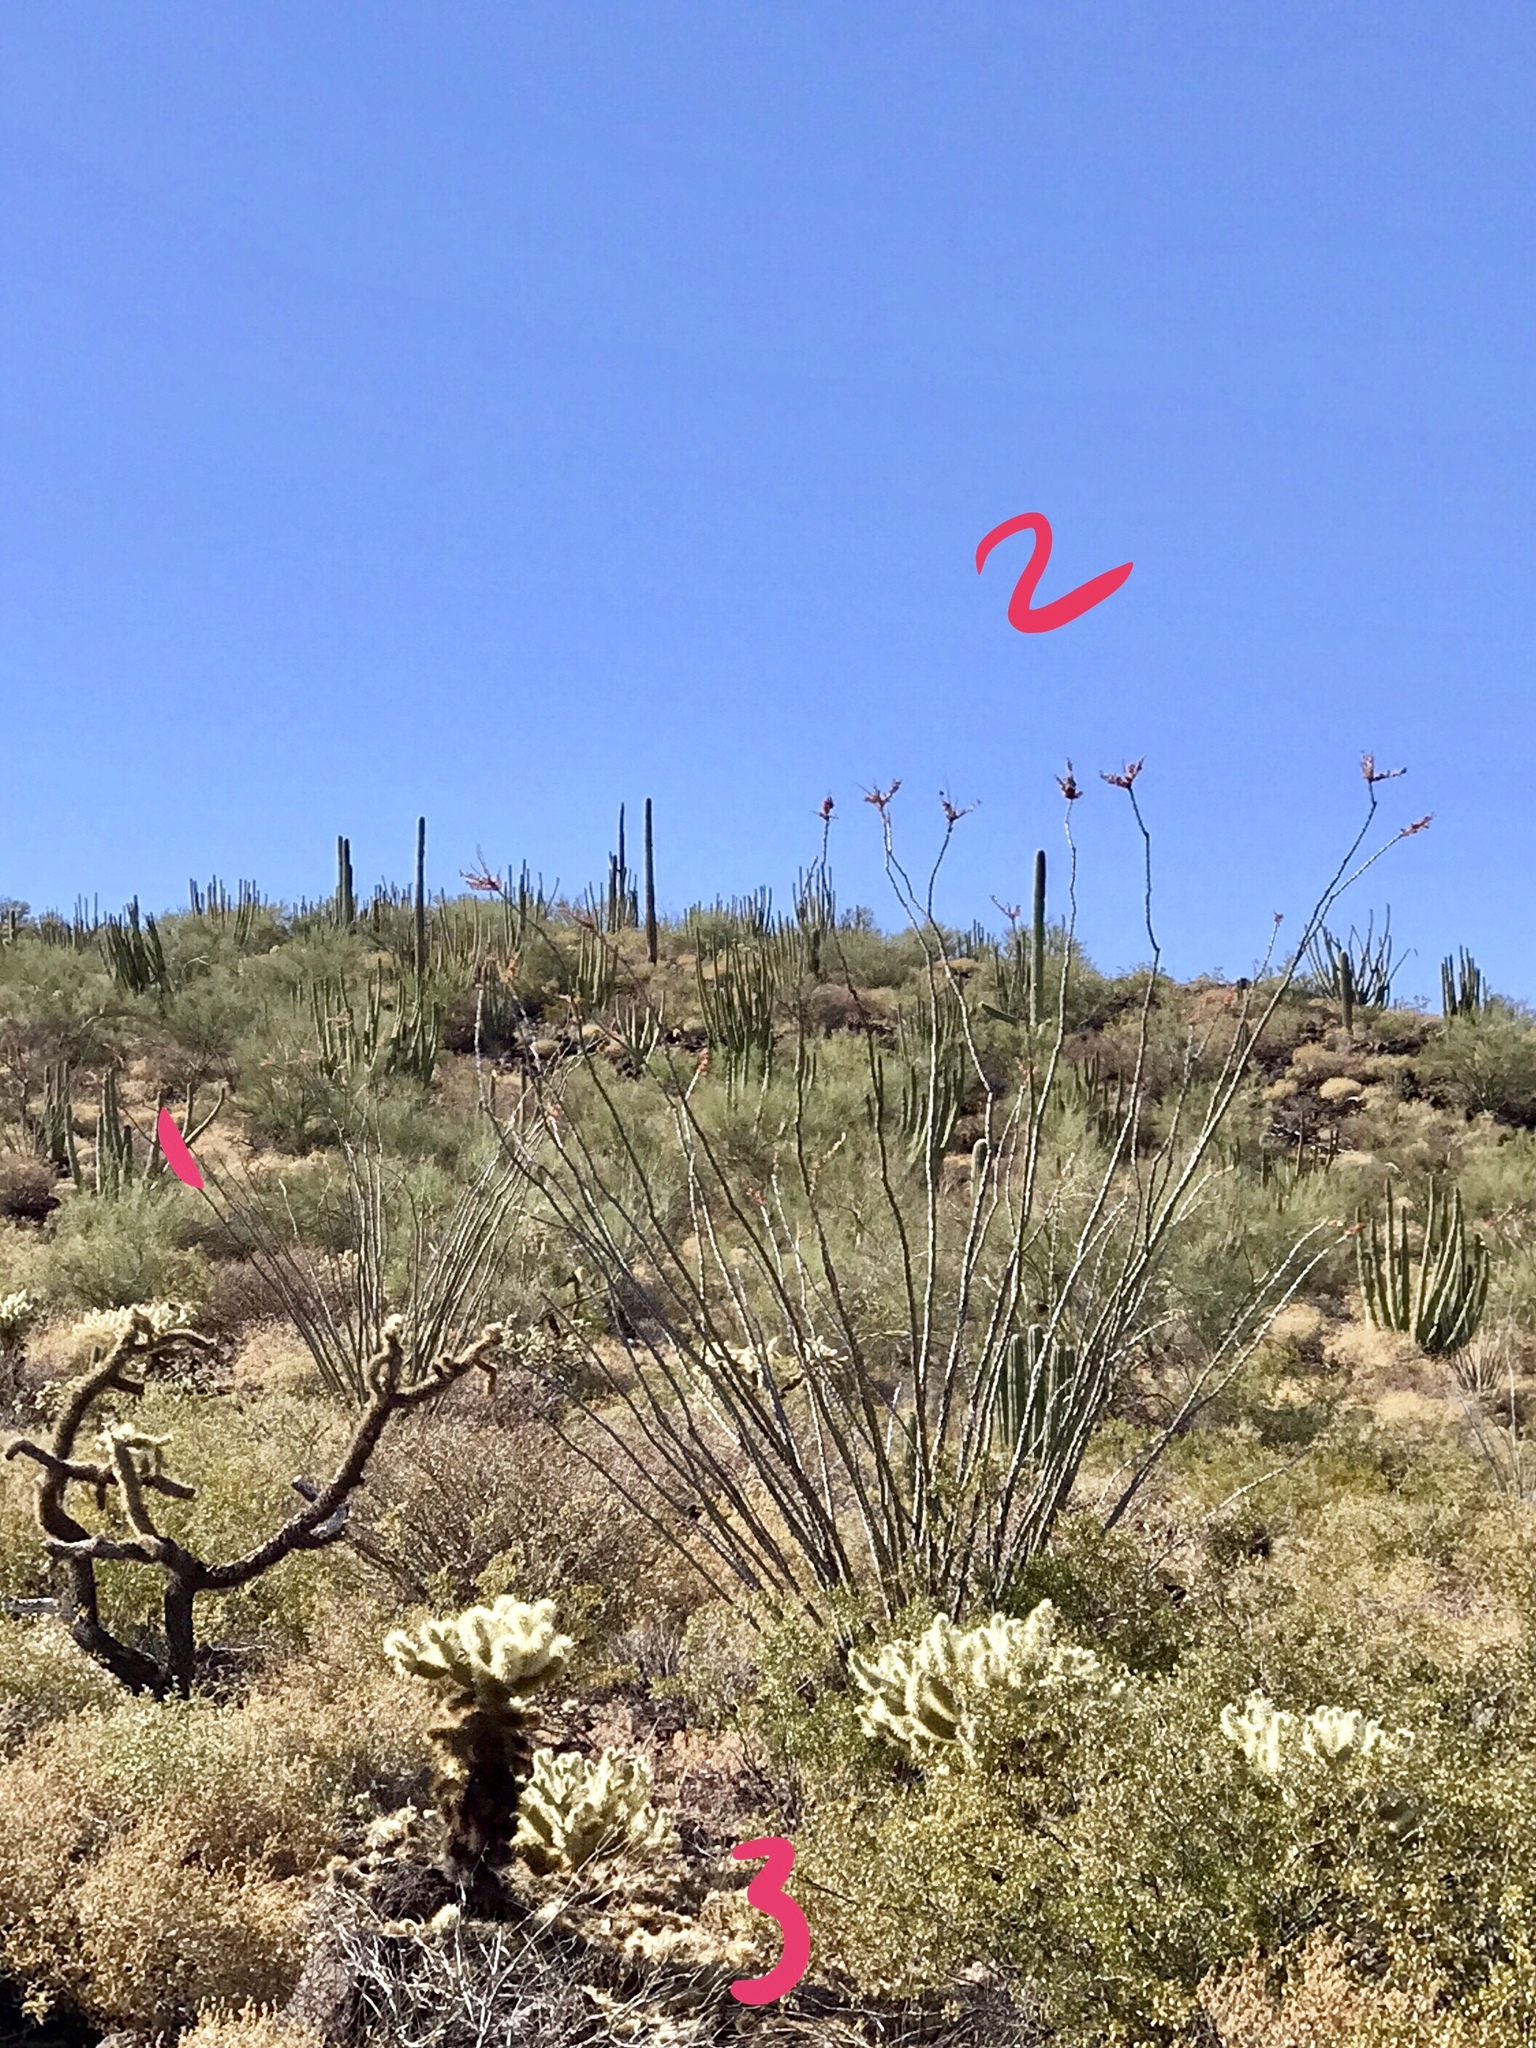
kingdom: Plantae
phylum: Tracheophyta
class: Magnoliopsida
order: Caryophyllales
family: Cactaceae
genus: Cylindropuntia
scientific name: Cylindropuntia fulgida
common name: Jumping cholla
